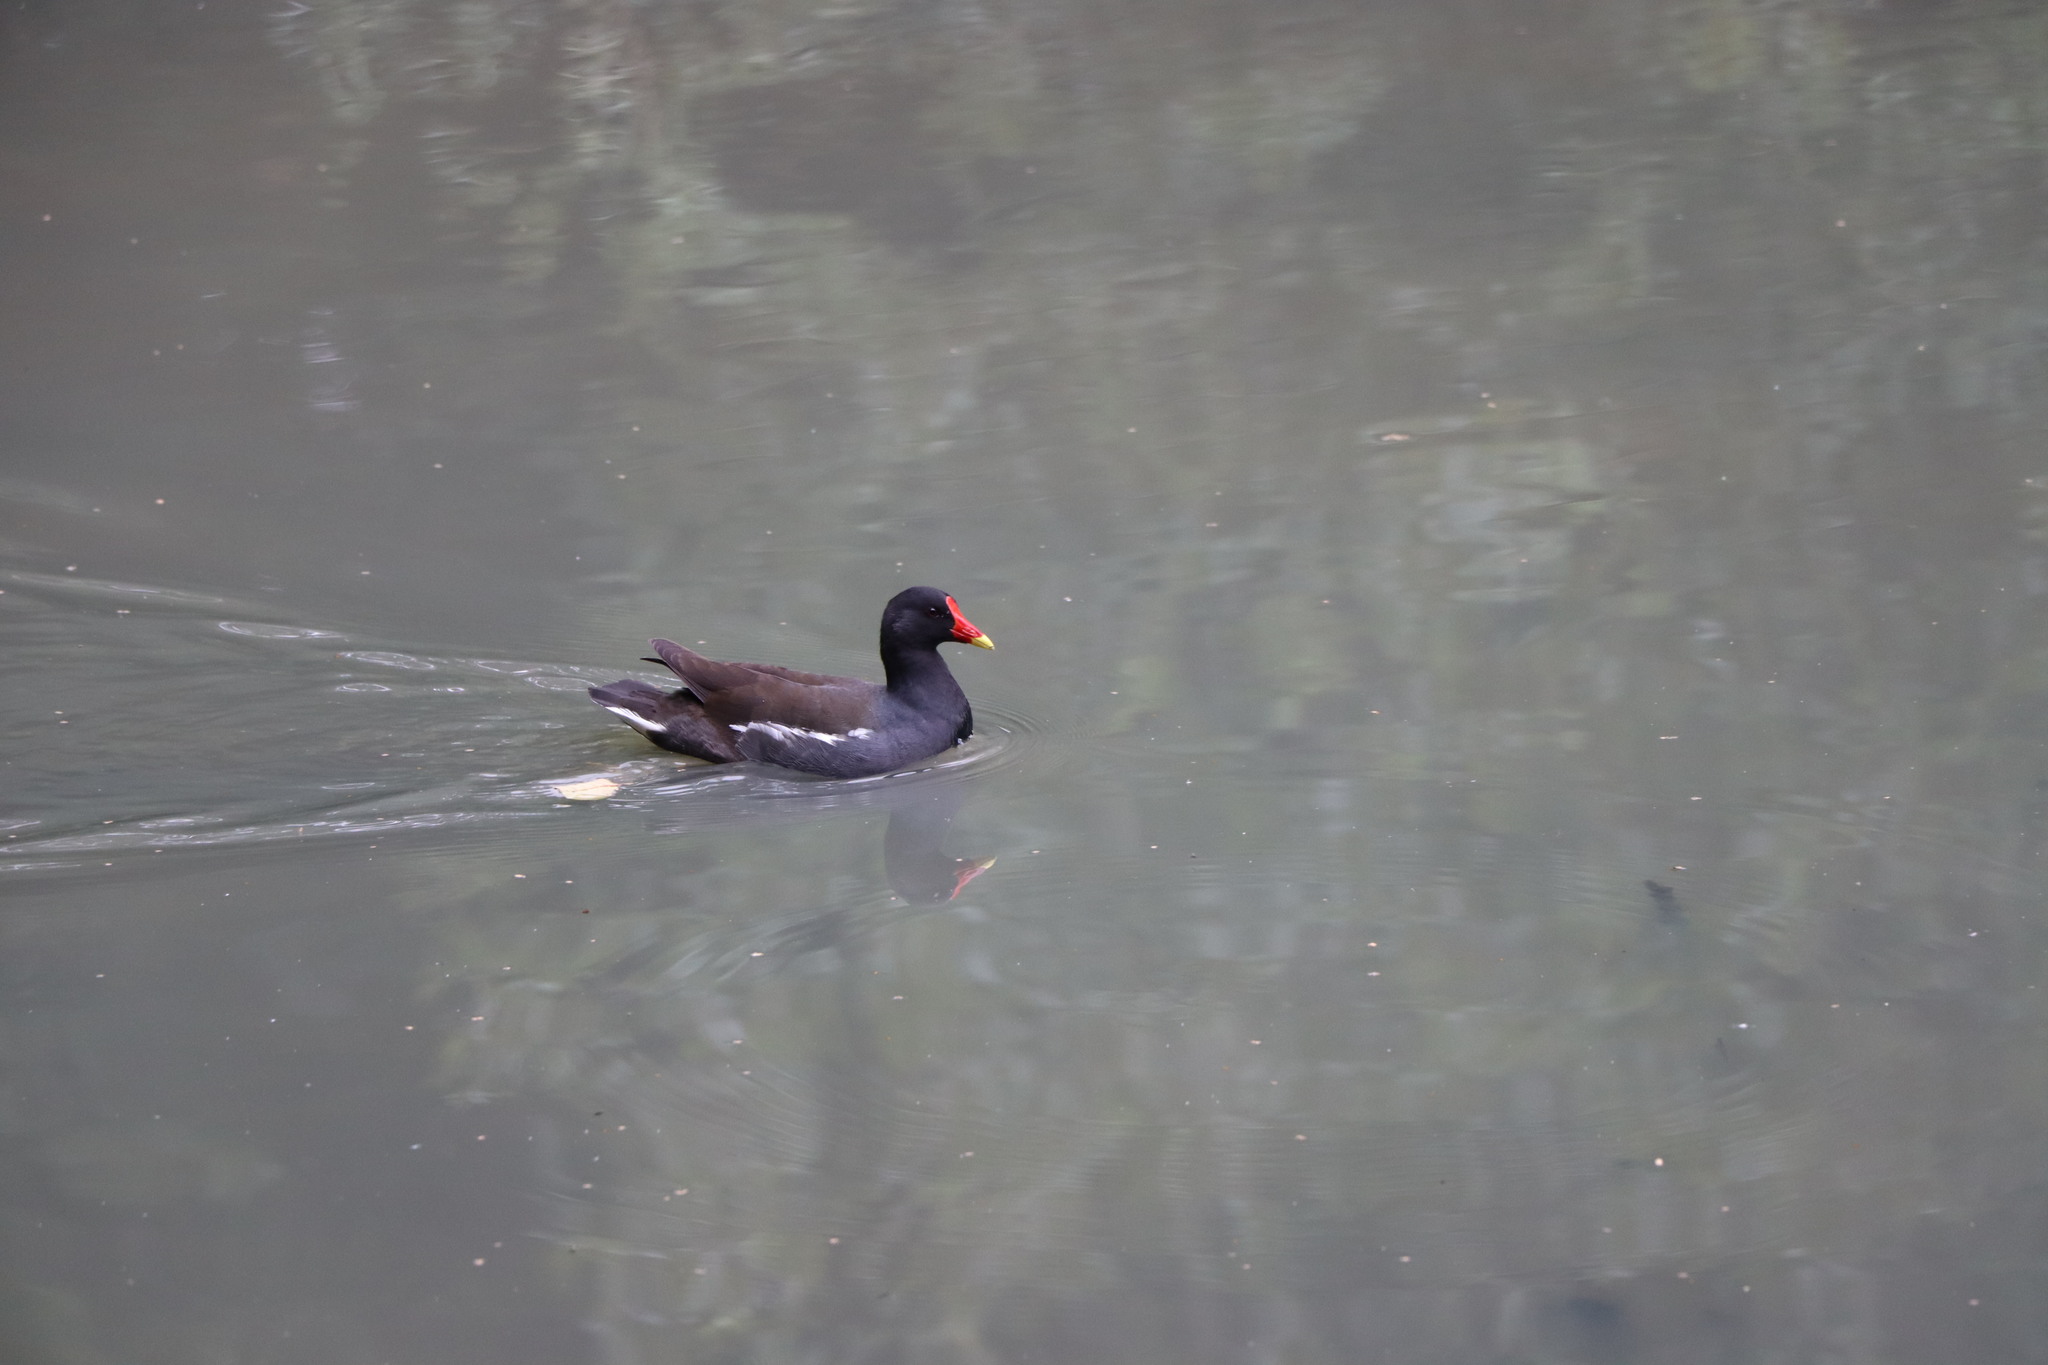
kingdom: Animalia
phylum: Chordata
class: Aves
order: Gruiformes
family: Rallidae
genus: Gallinula
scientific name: Gallinula chloropus
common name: Common moorhen
